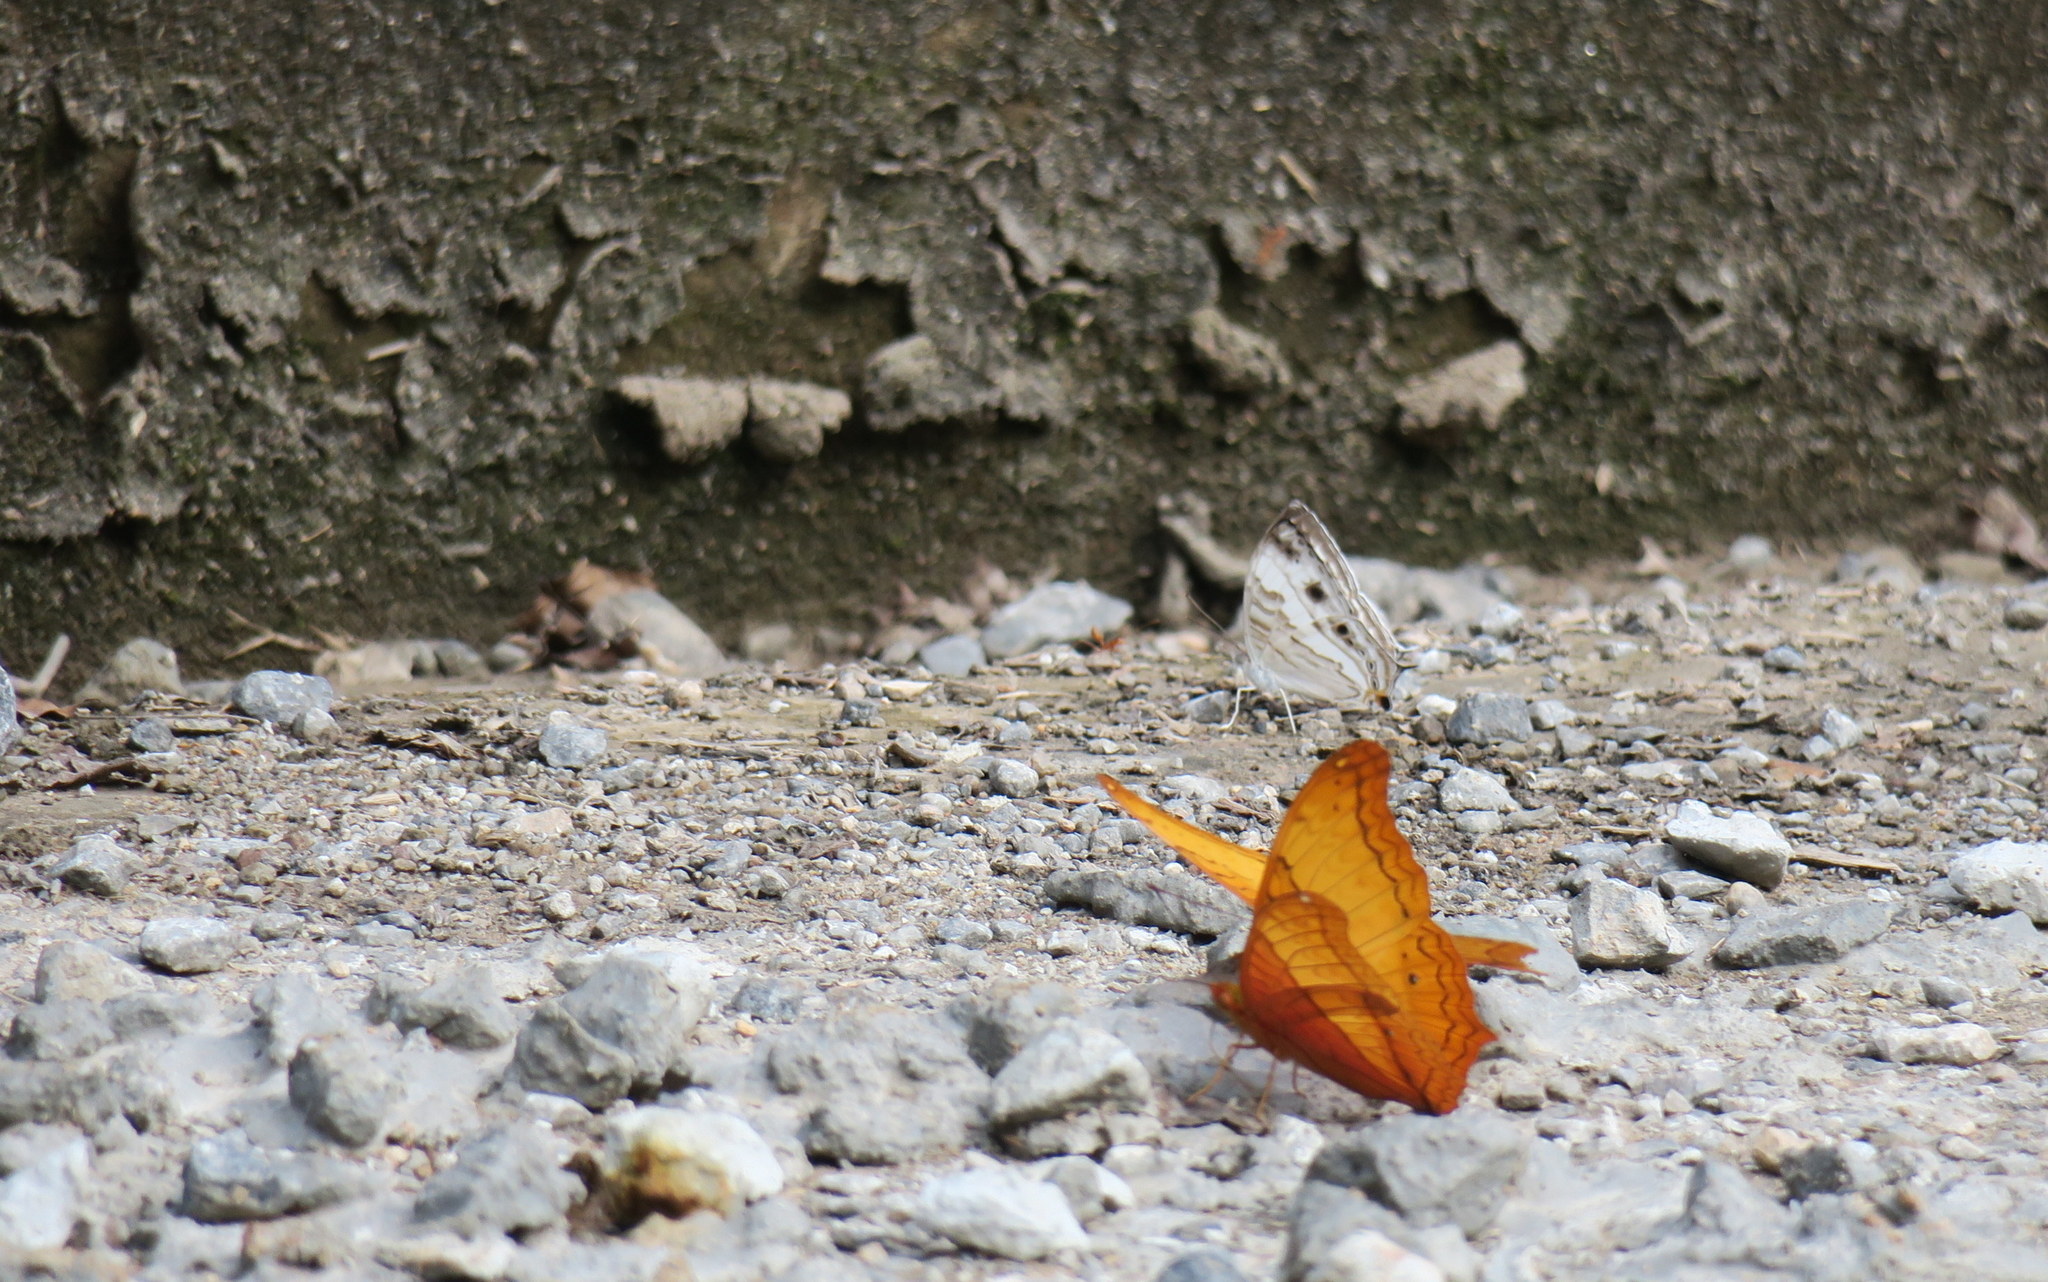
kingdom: Animalia
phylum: Arthropoda
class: Insecta
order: Lepidoptera
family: Nymphalidae
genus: Cyrestis
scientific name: Cyrestis cocles
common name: Marbled map
